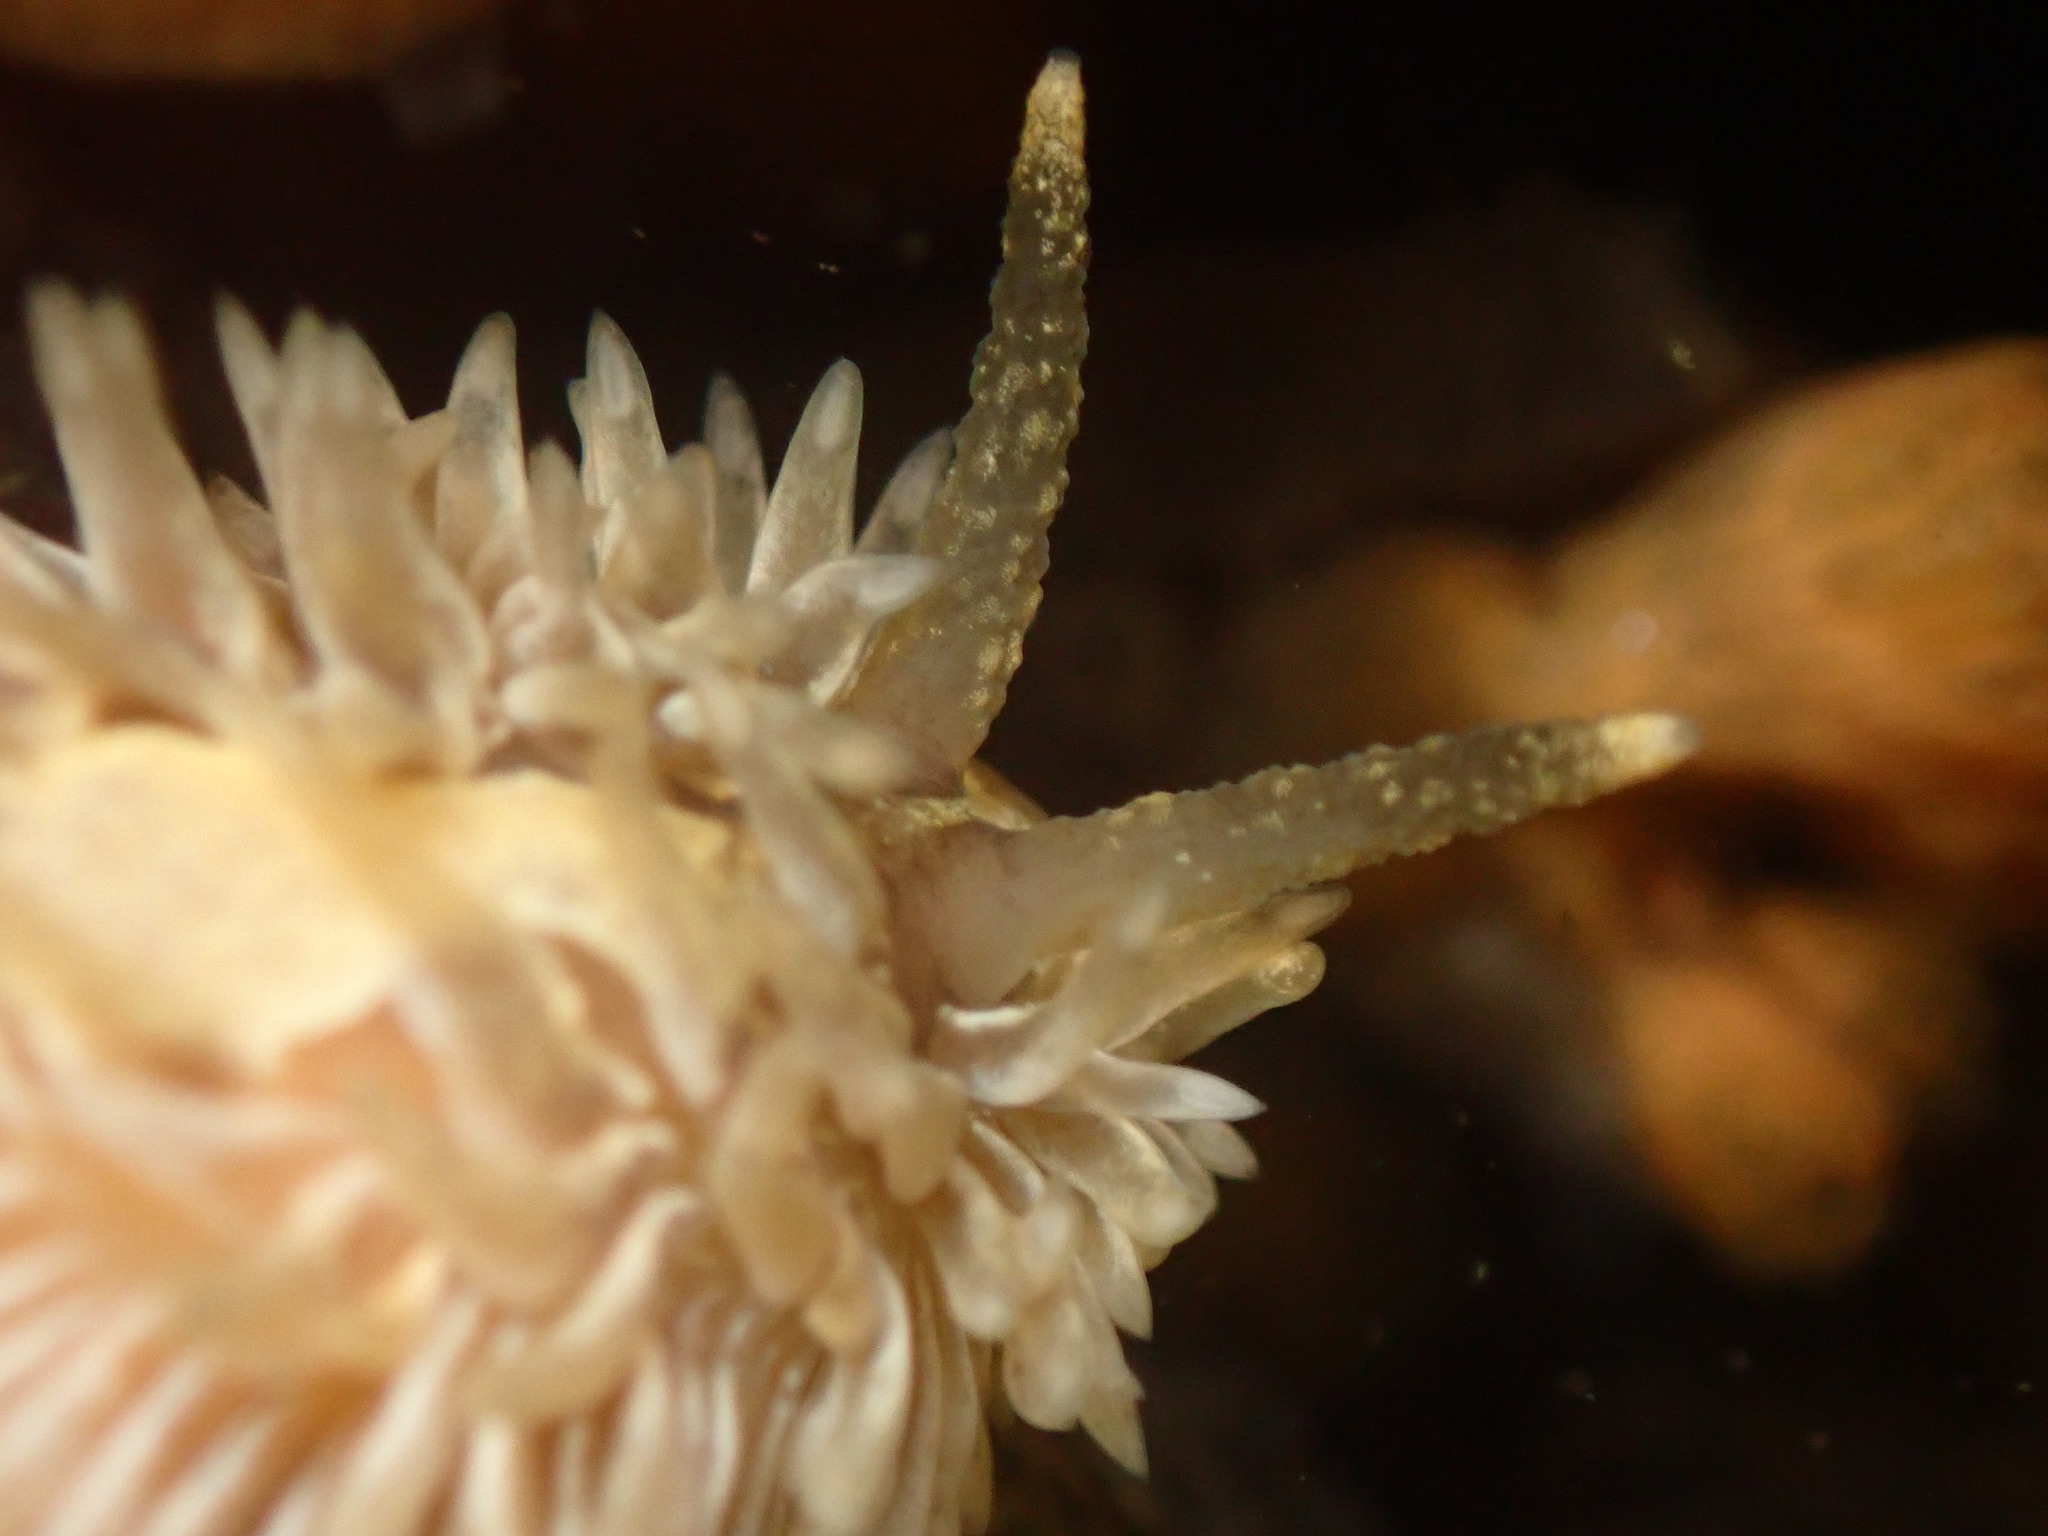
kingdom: Animalia
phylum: Mollusca
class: Gastropoda
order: Nudibranchia
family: Aeolidiidae
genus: Aeolidia
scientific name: Aeolidia loui
